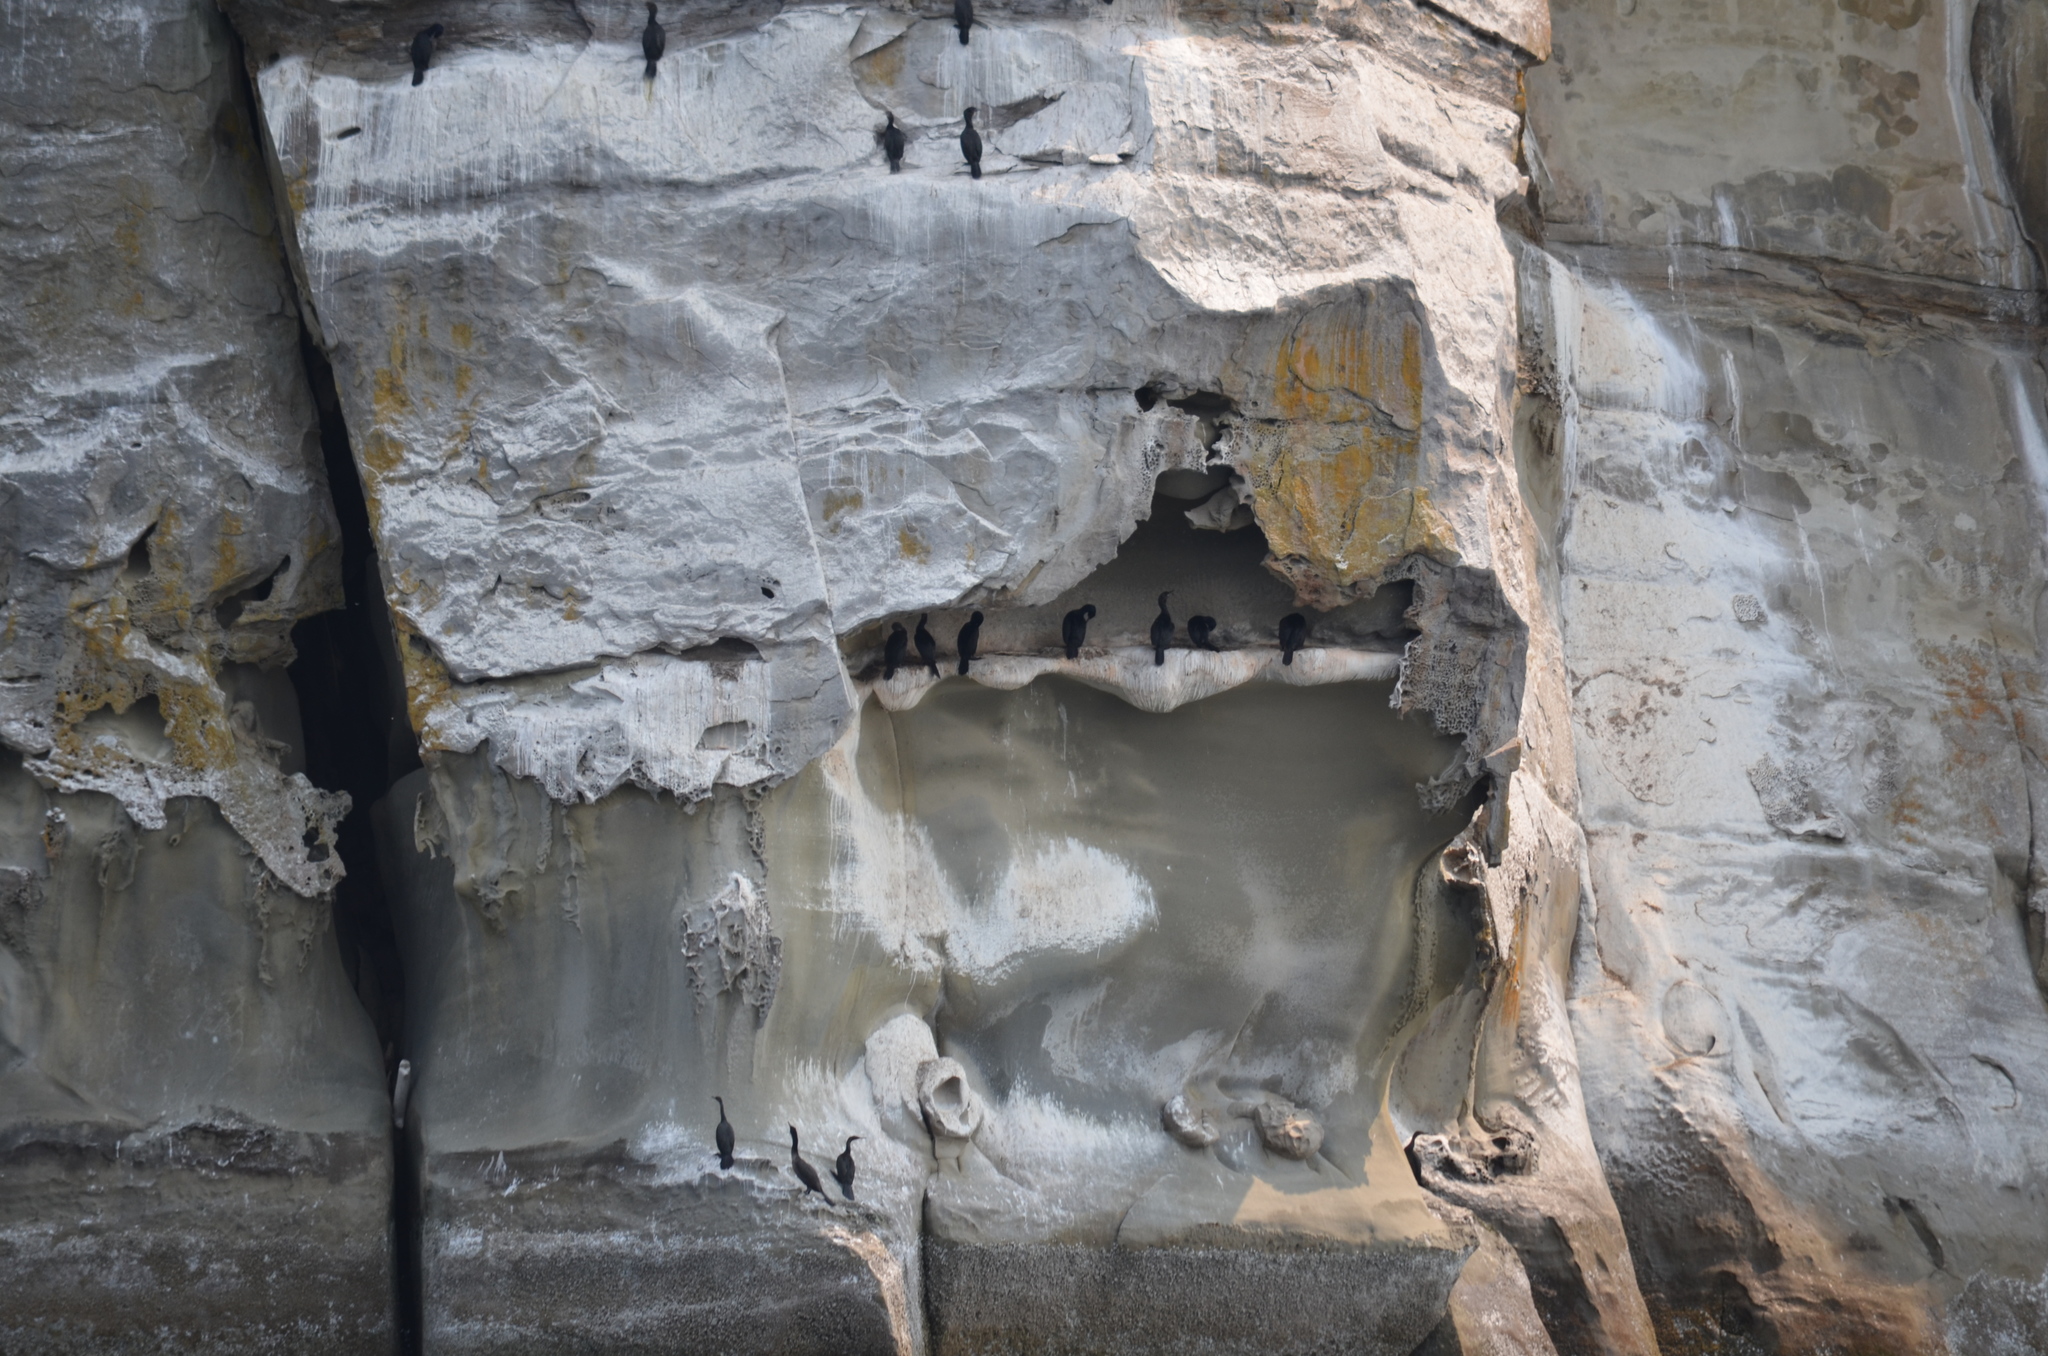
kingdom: Animalia
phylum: Chordata
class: Aves
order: Suliformes
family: Phalacrocoracidae
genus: Phalacrocorax
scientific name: Phalacrocorax pelagicus
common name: Pelagic cormorant
